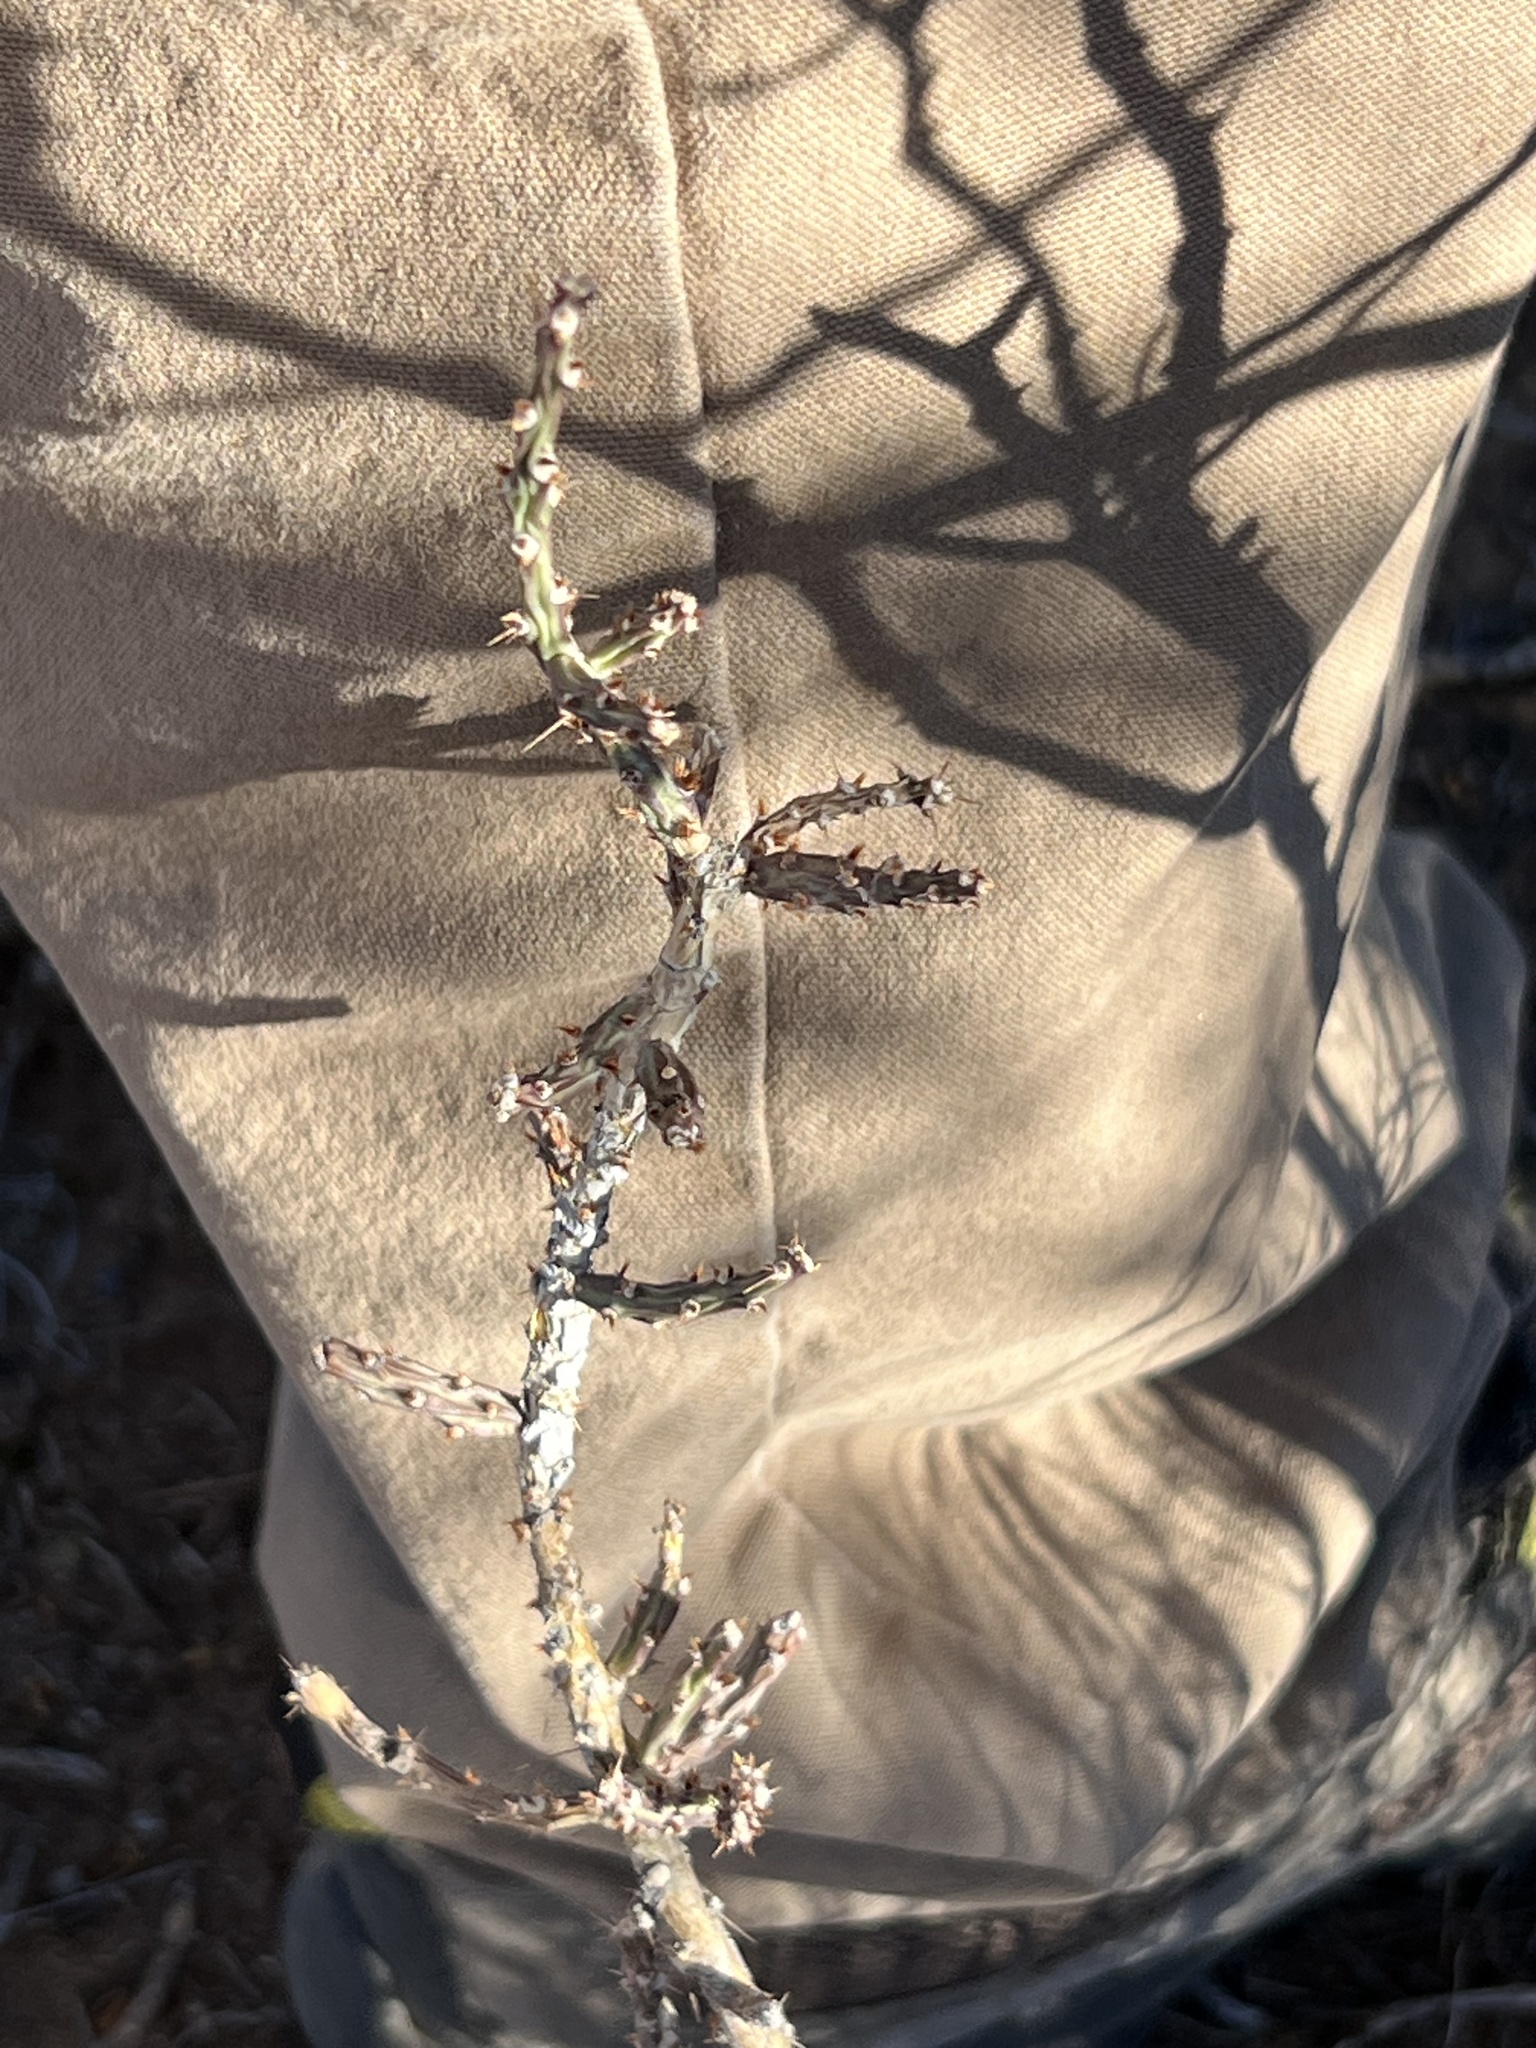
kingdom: Plantae
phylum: Tracheophyta
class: Magnoliopsida
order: Caryophyllales
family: Cactaceae
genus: Cylindropuntia
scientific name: Cylindropuntia leptocaulis
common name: Christmas cactus
